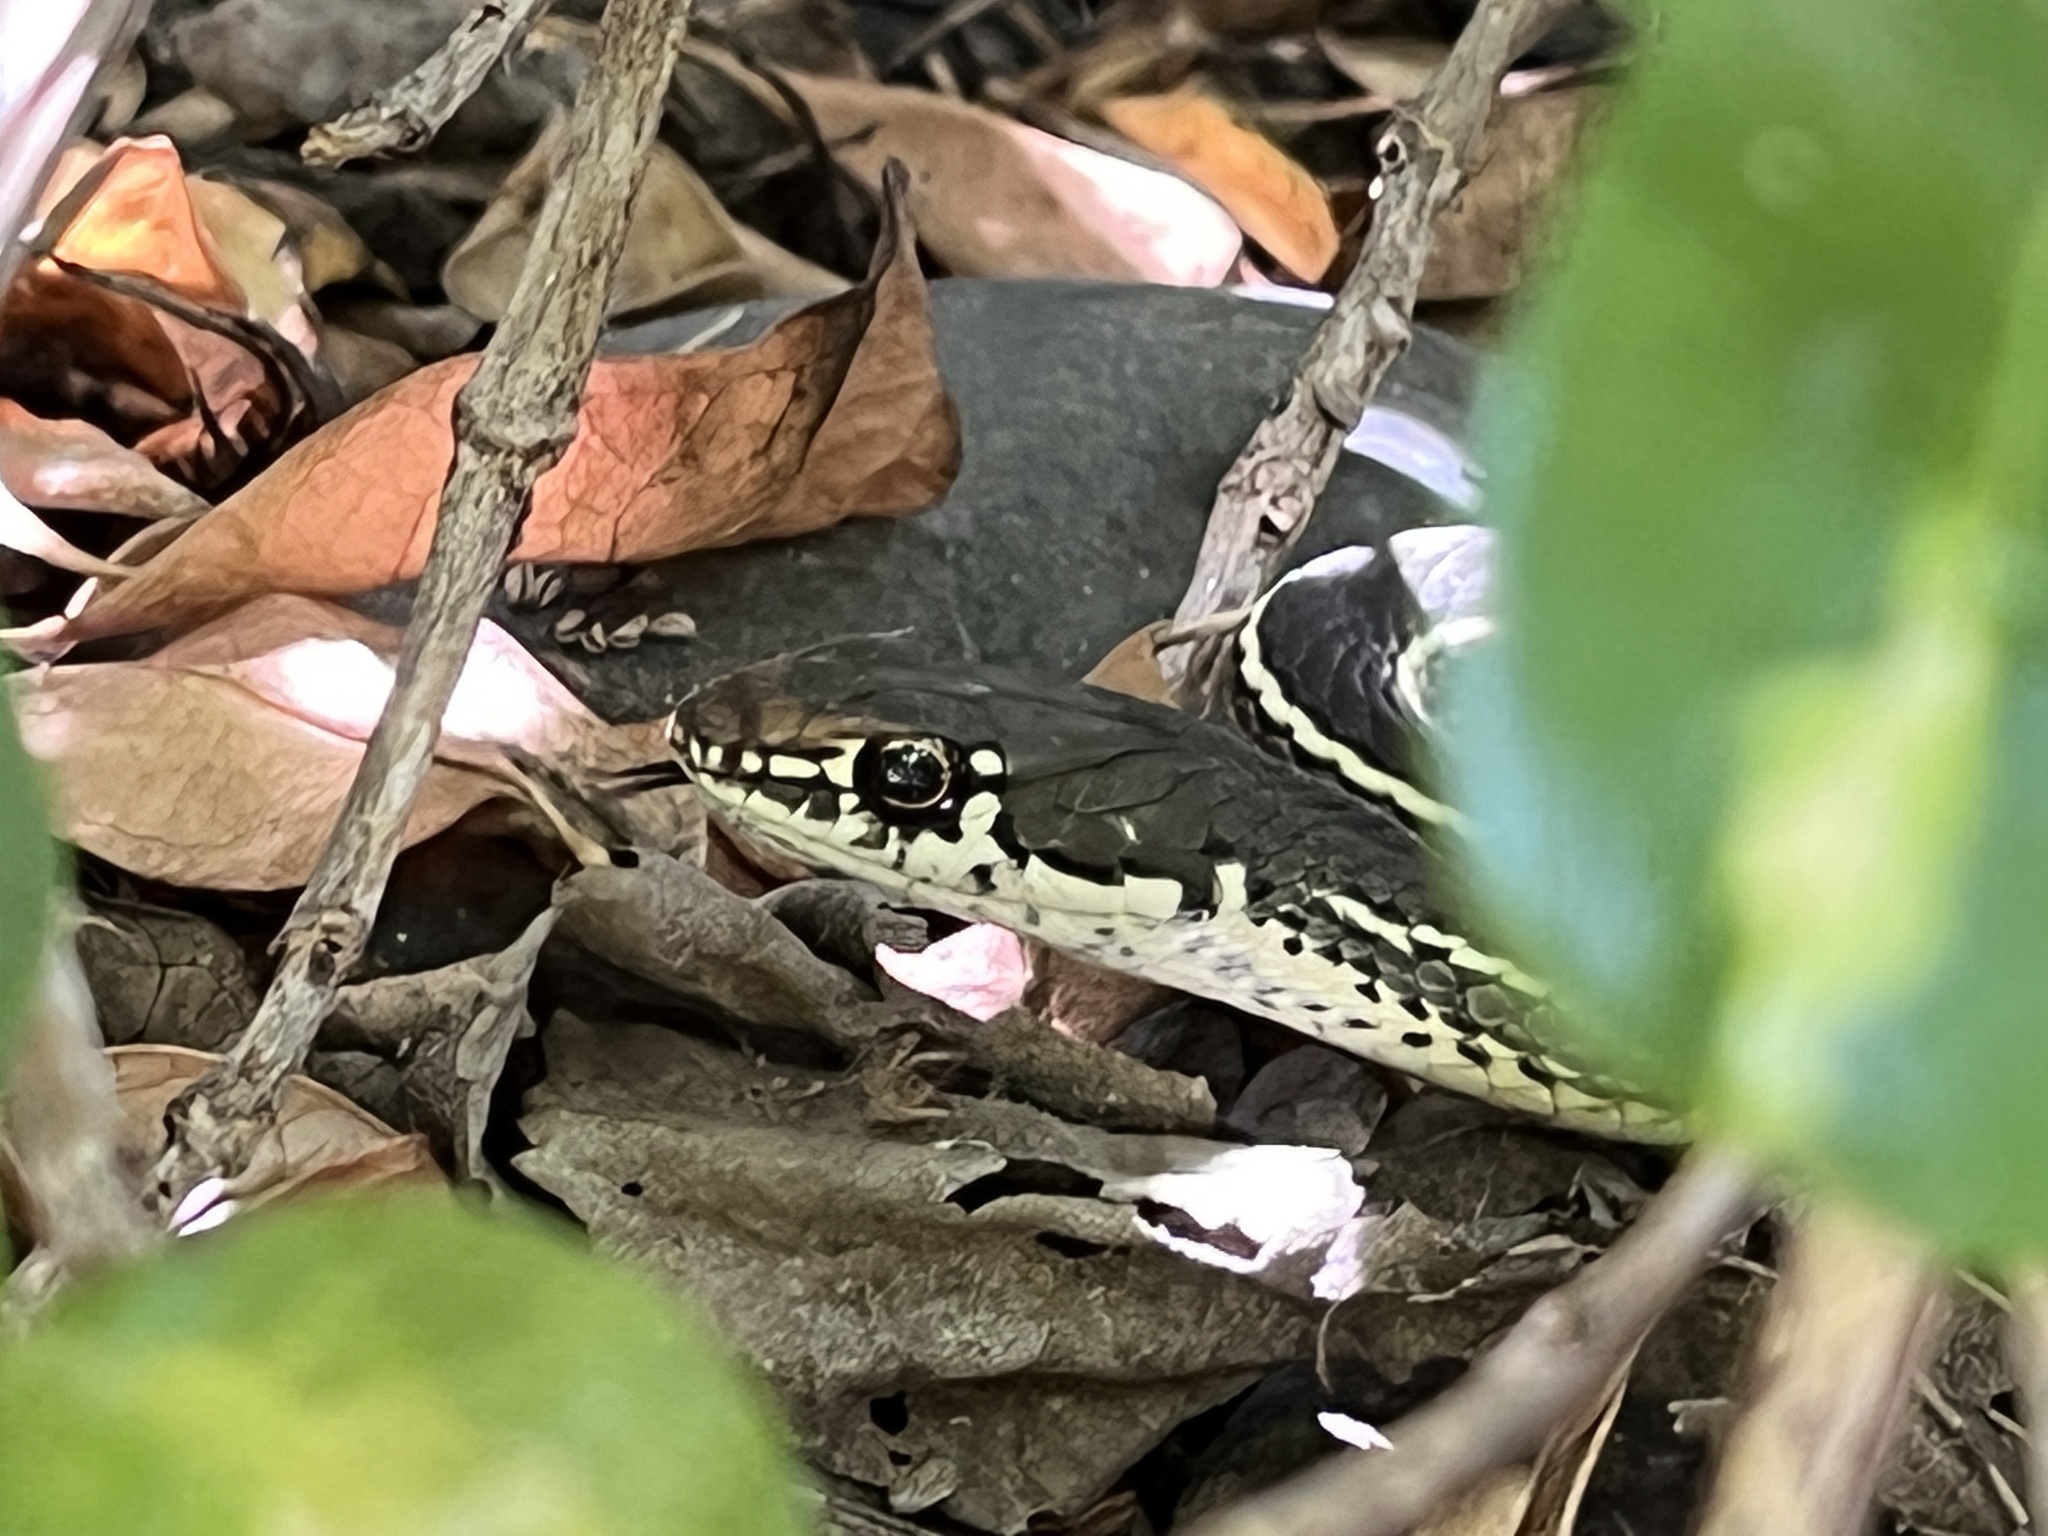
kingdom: Animalia
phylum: Chordata
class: Squamata
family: Colubridae
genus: Masticophis
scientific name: Masticophis lateralis
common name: Striped racer
